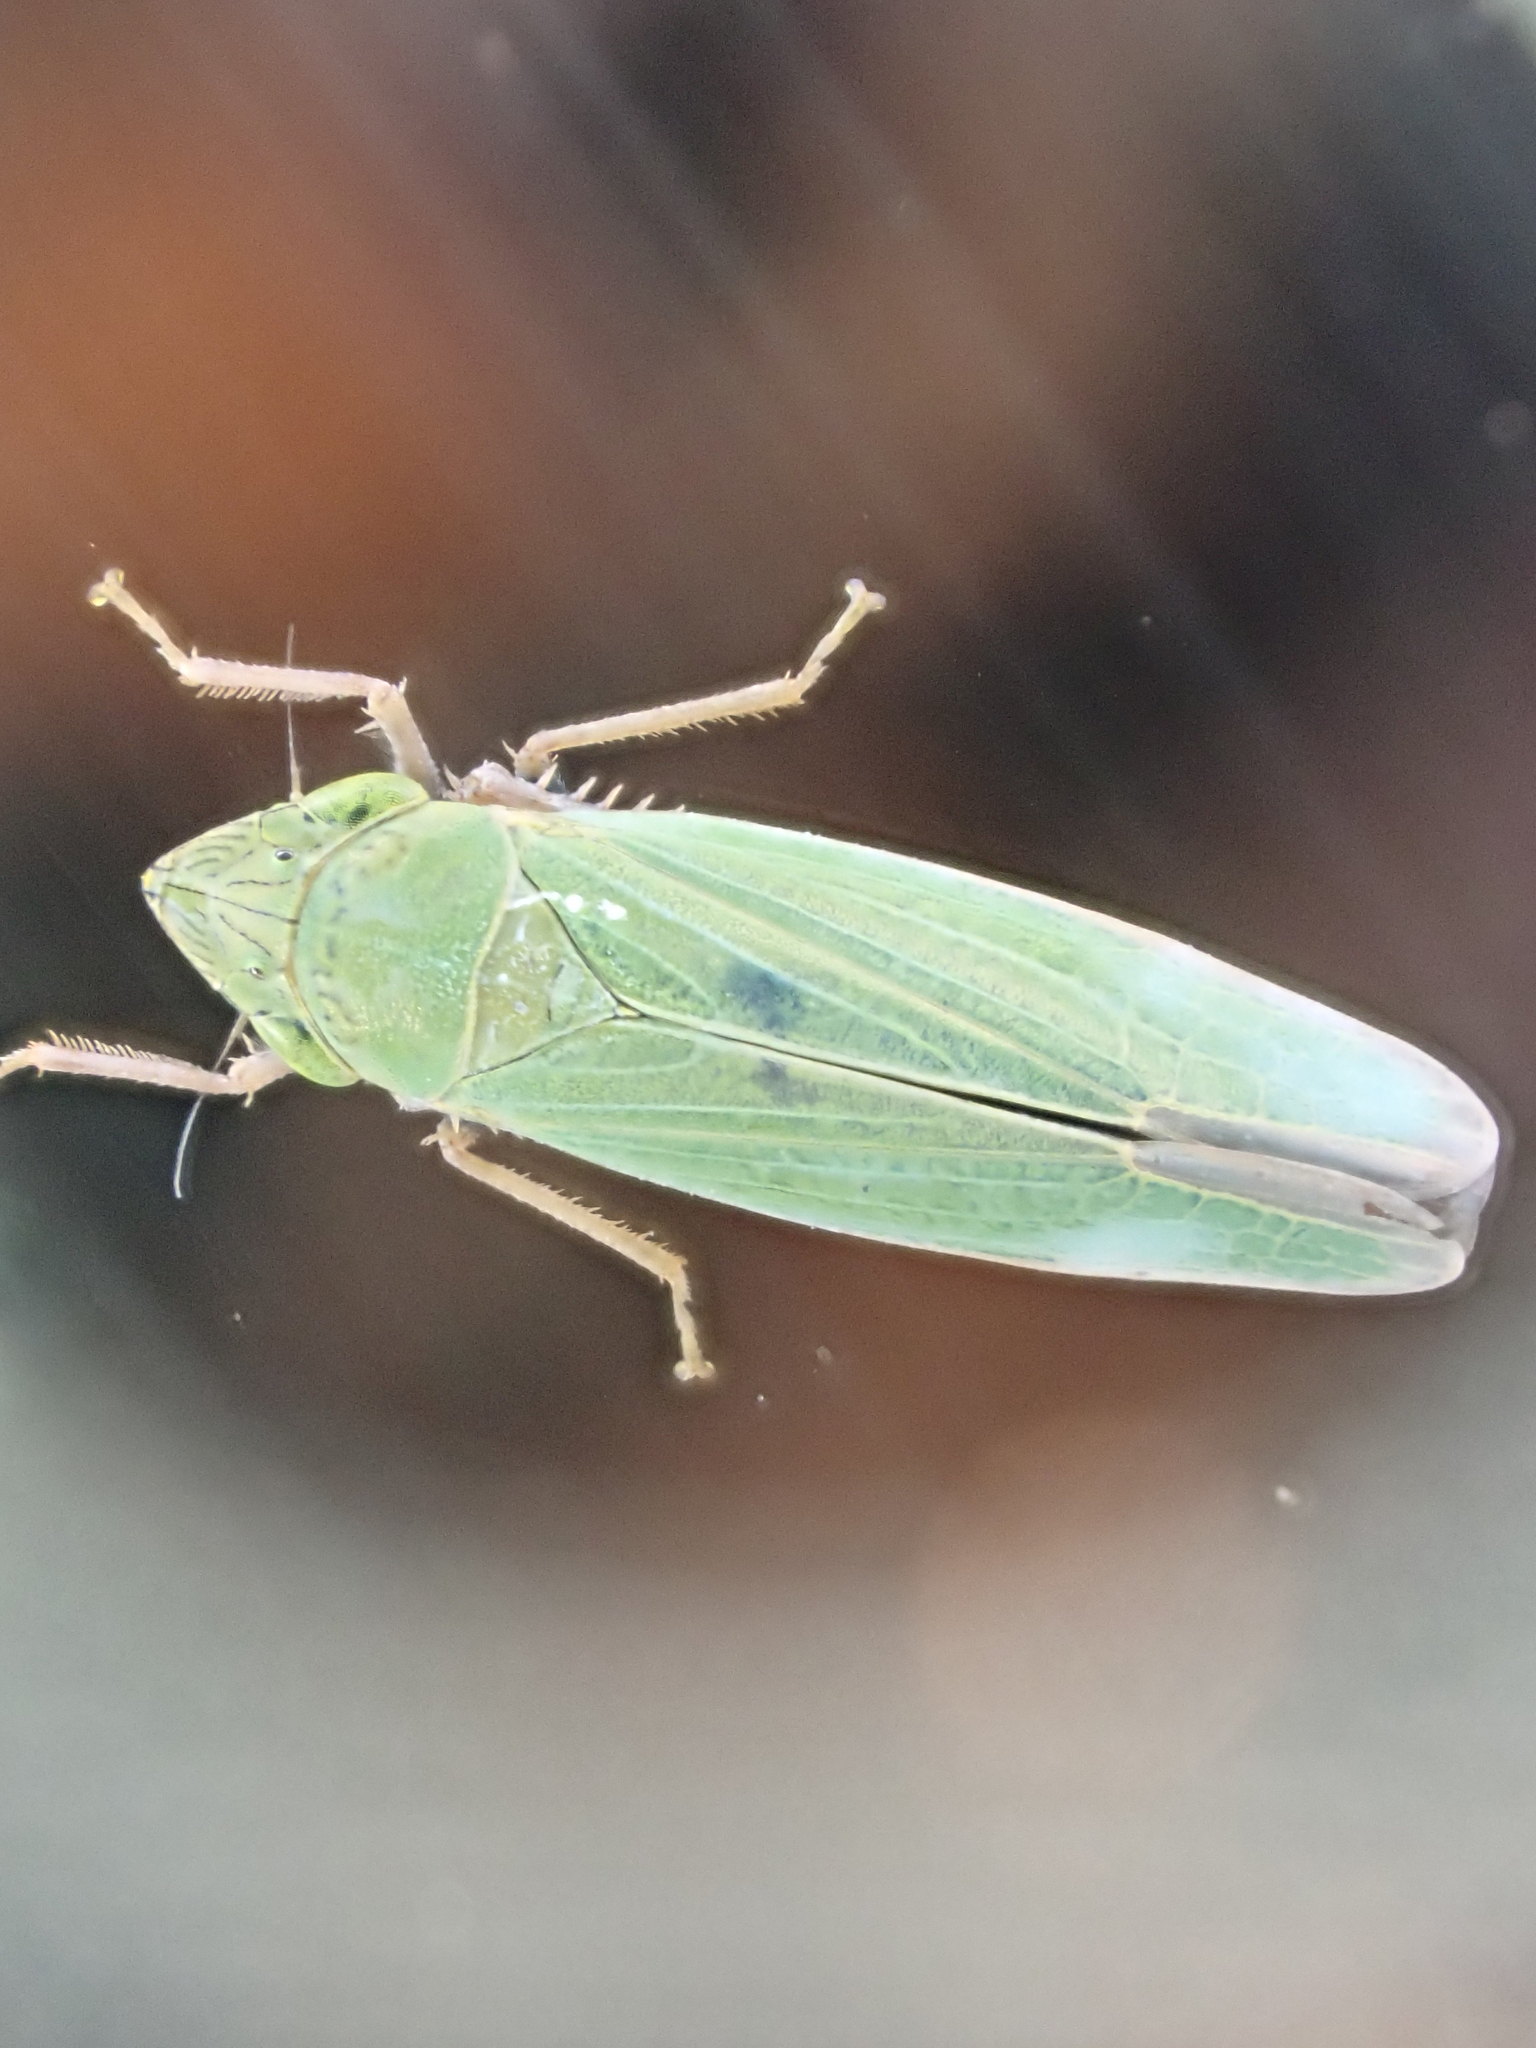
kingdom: Animalia
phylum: Arthropoda
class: Insecta
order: Hemiptera
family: Cicadellidae
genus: Draeculacephala
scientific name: Draeculacephala robinsoni
